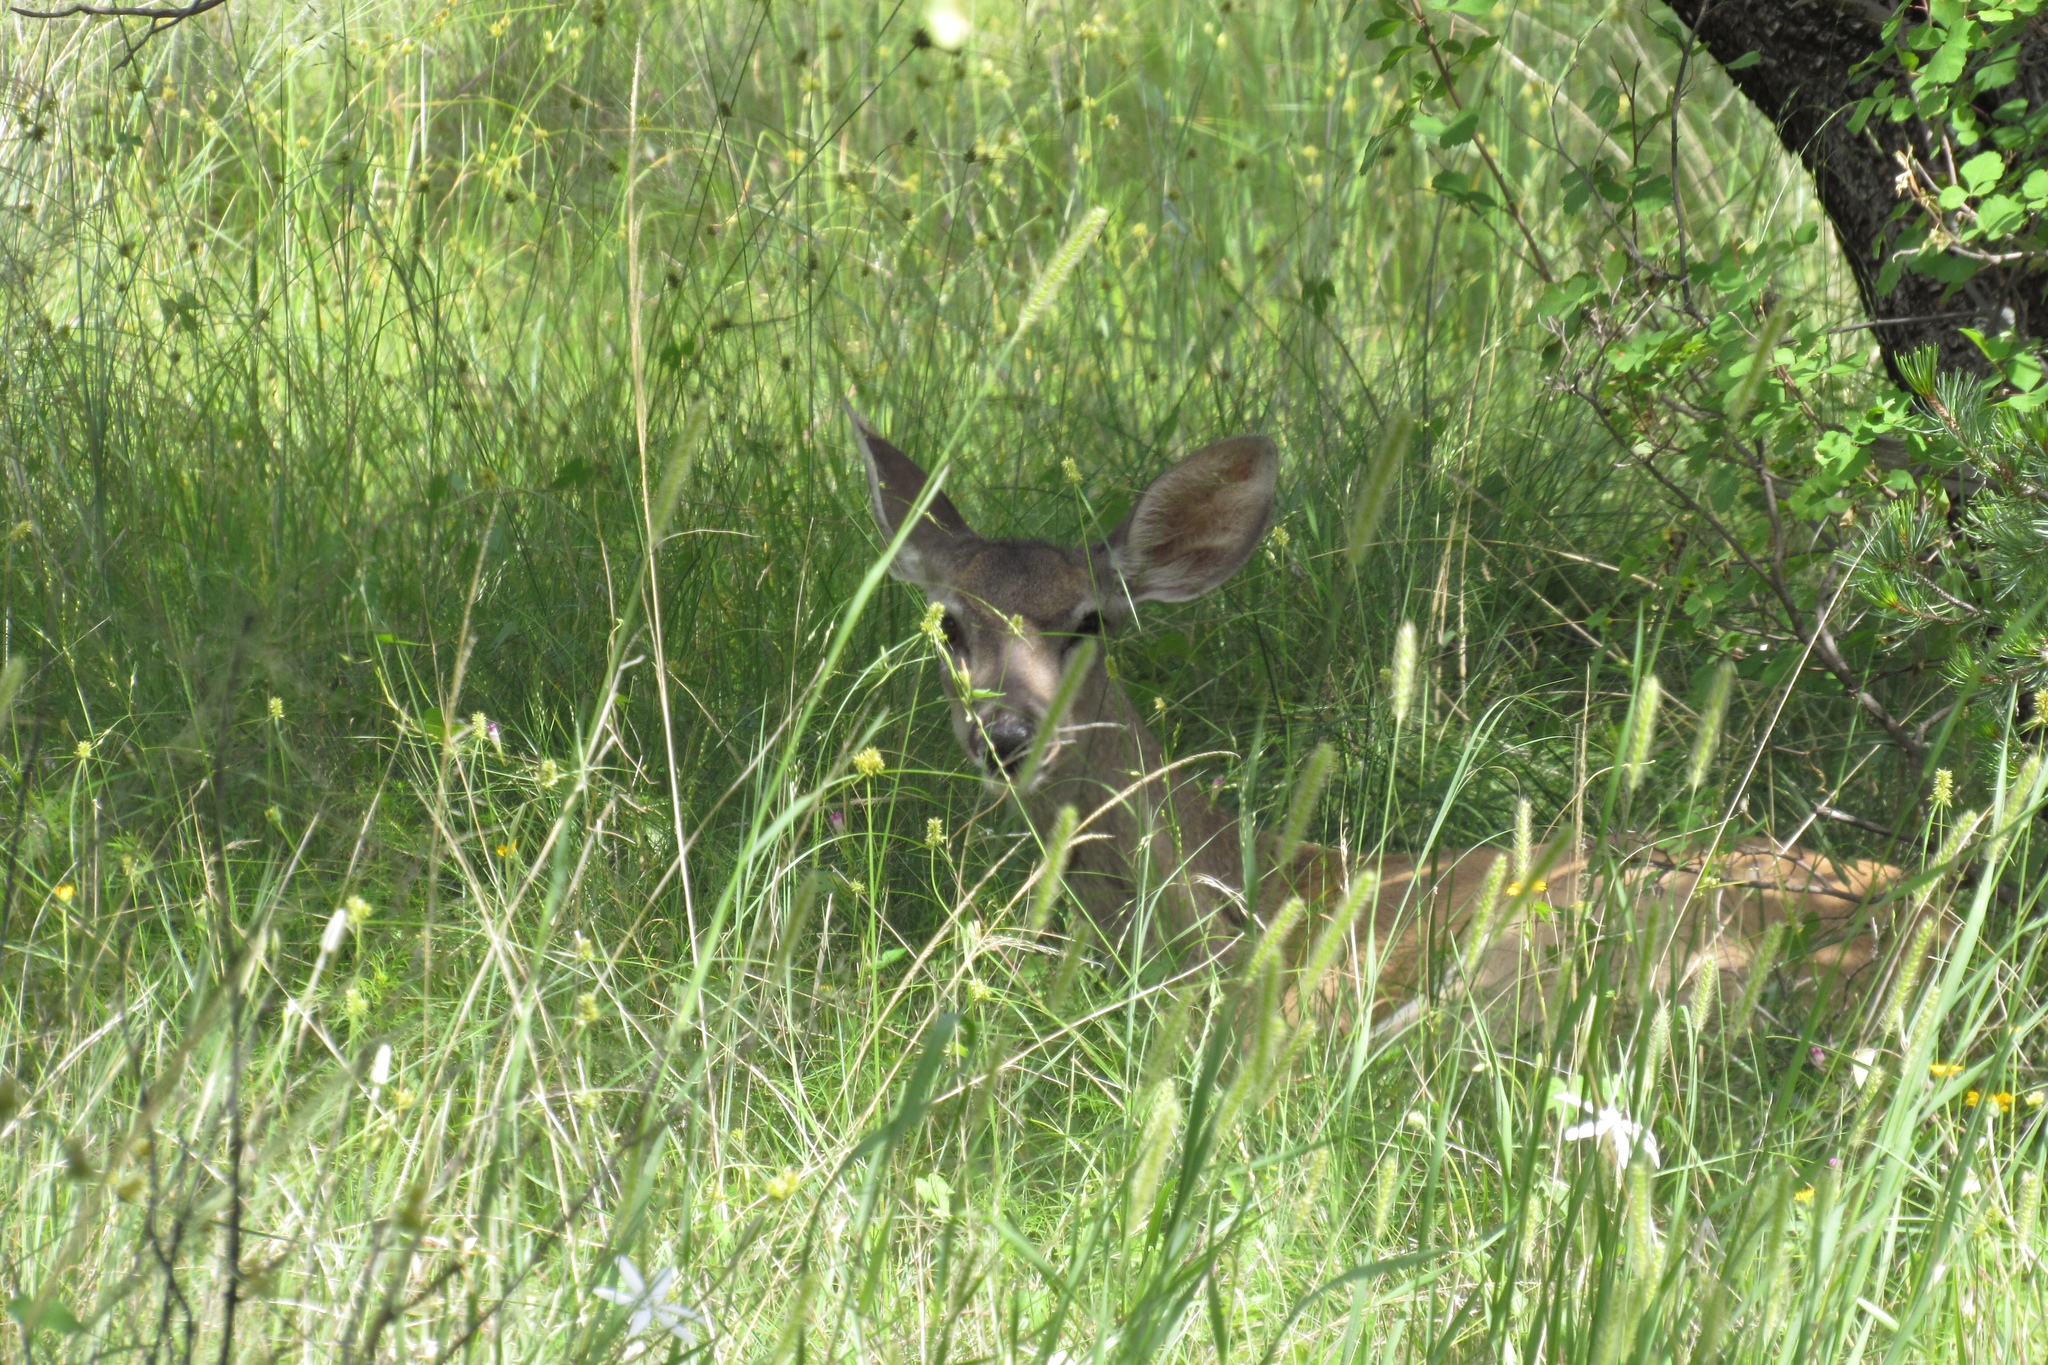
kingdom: Animalia
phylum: Chordata
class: Mammalia
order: Artiodactyla
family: Cervidae
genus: Odocoileus
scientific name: Odocoileus virginianus
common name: White-tailed deer
